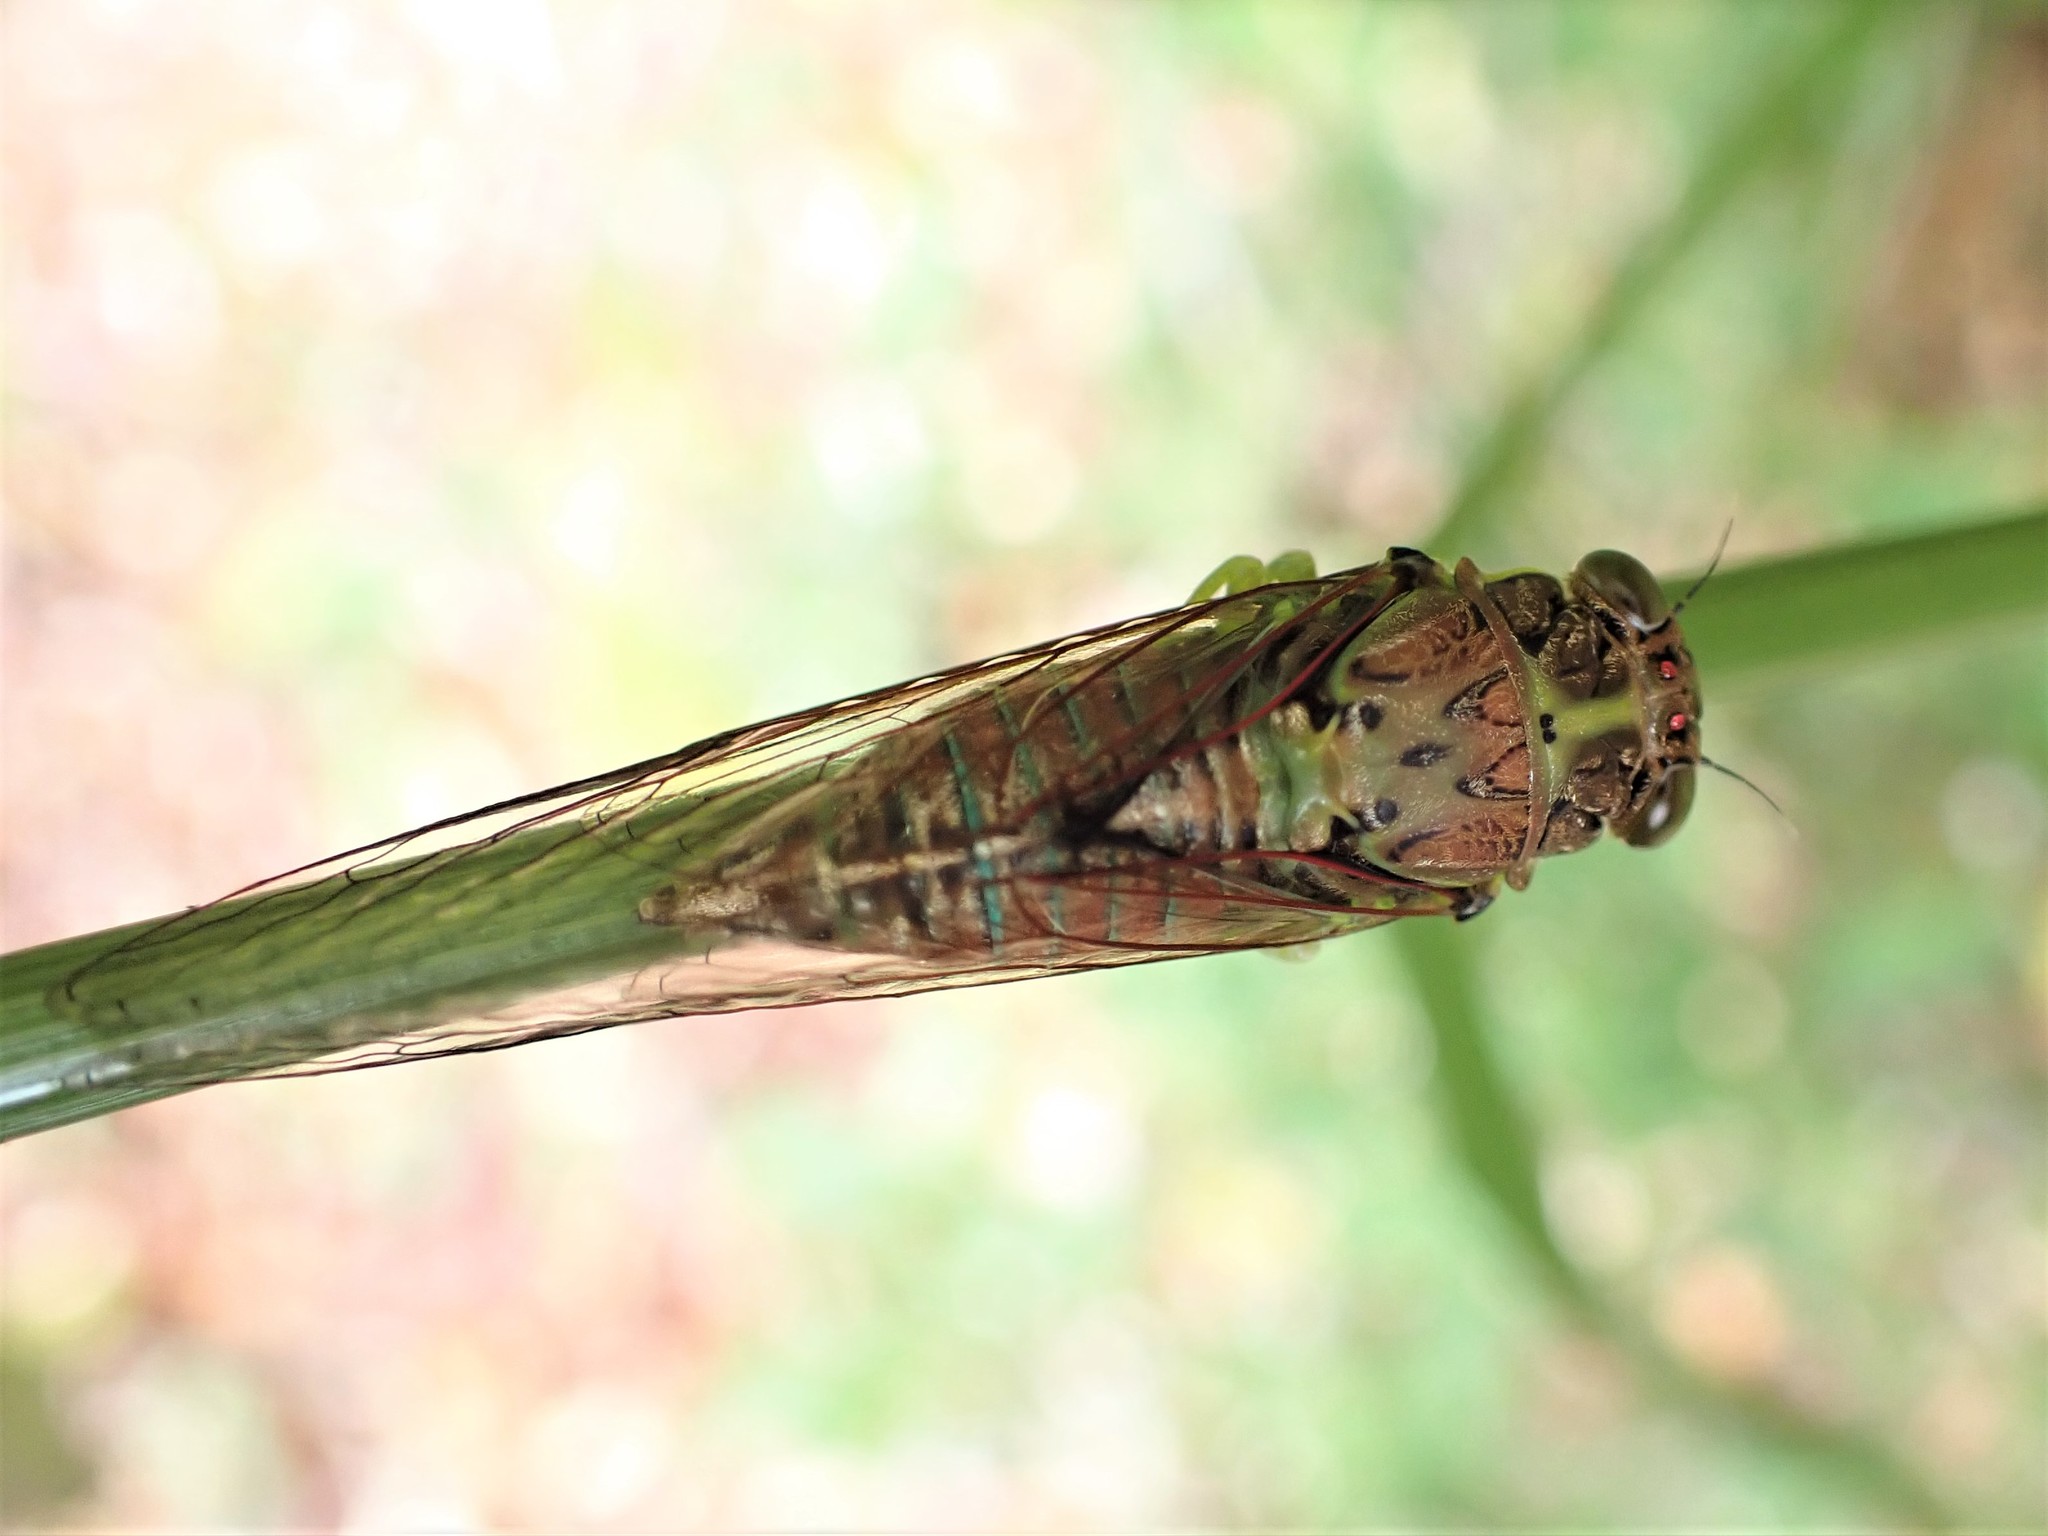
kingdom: Animalia
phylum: Arthropoda
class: Insecta
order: Hemiptera
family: Cicadidae
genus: Kikihia
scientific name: Kikihia scutellaris
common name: Lesser bronze cicada
